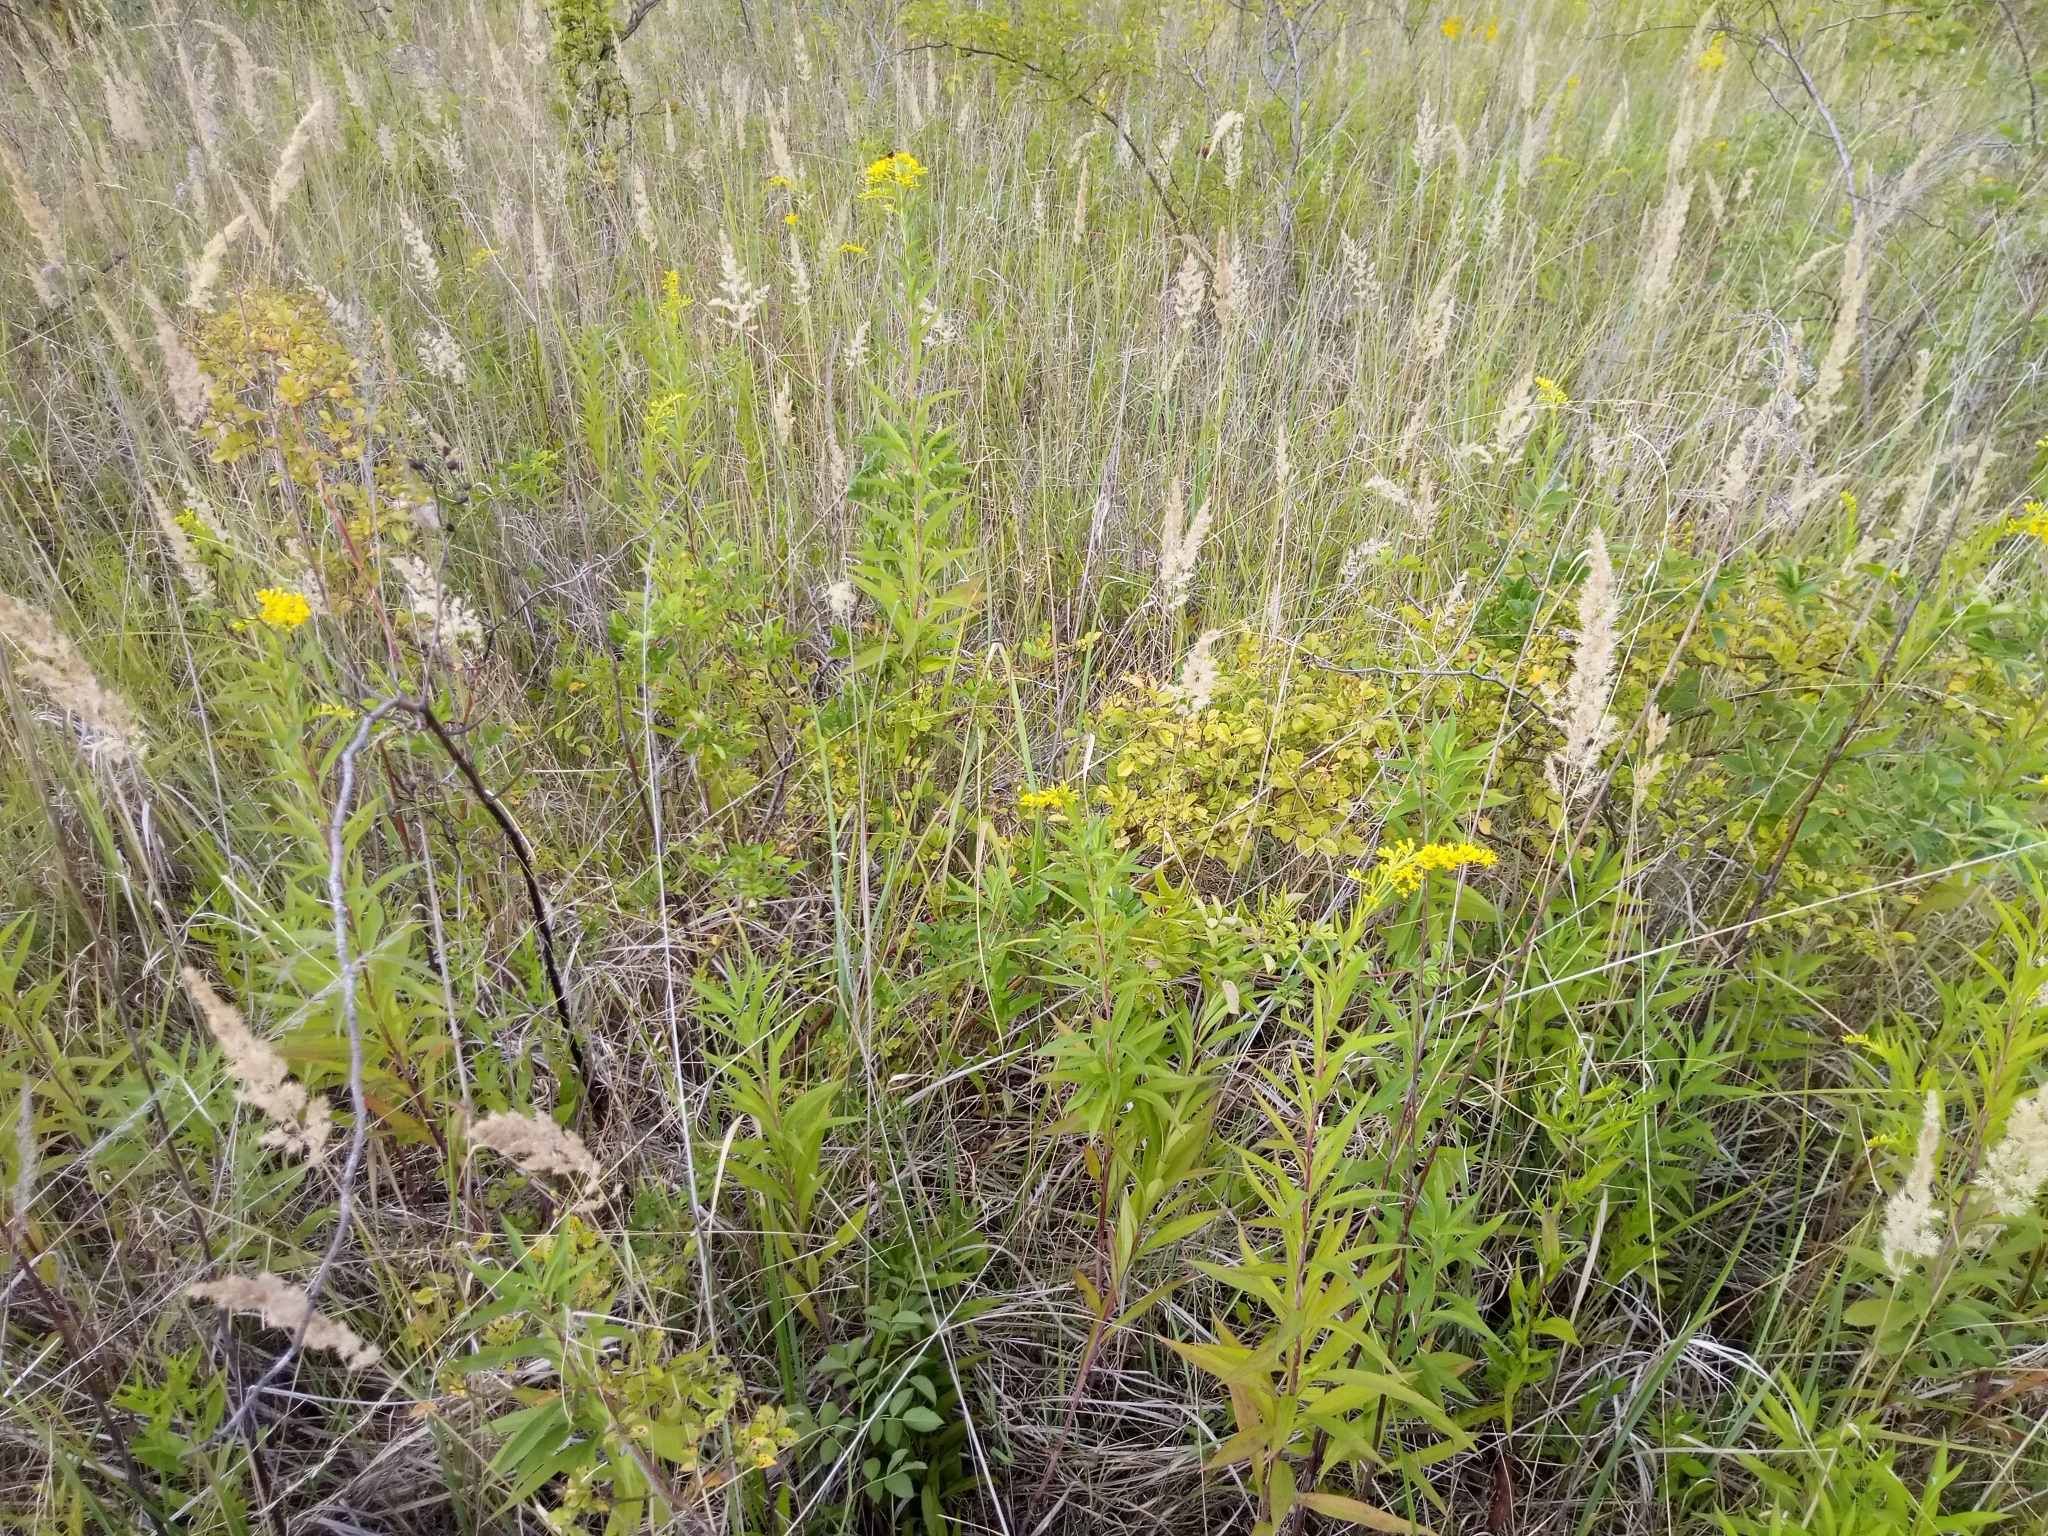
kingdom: Plantae
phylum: Tracheophyta
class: Liliopsida
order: Poales
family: Poaceae
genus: Calamagrostis
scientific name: Calamagrostis epigejos
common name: Wood small-reed
